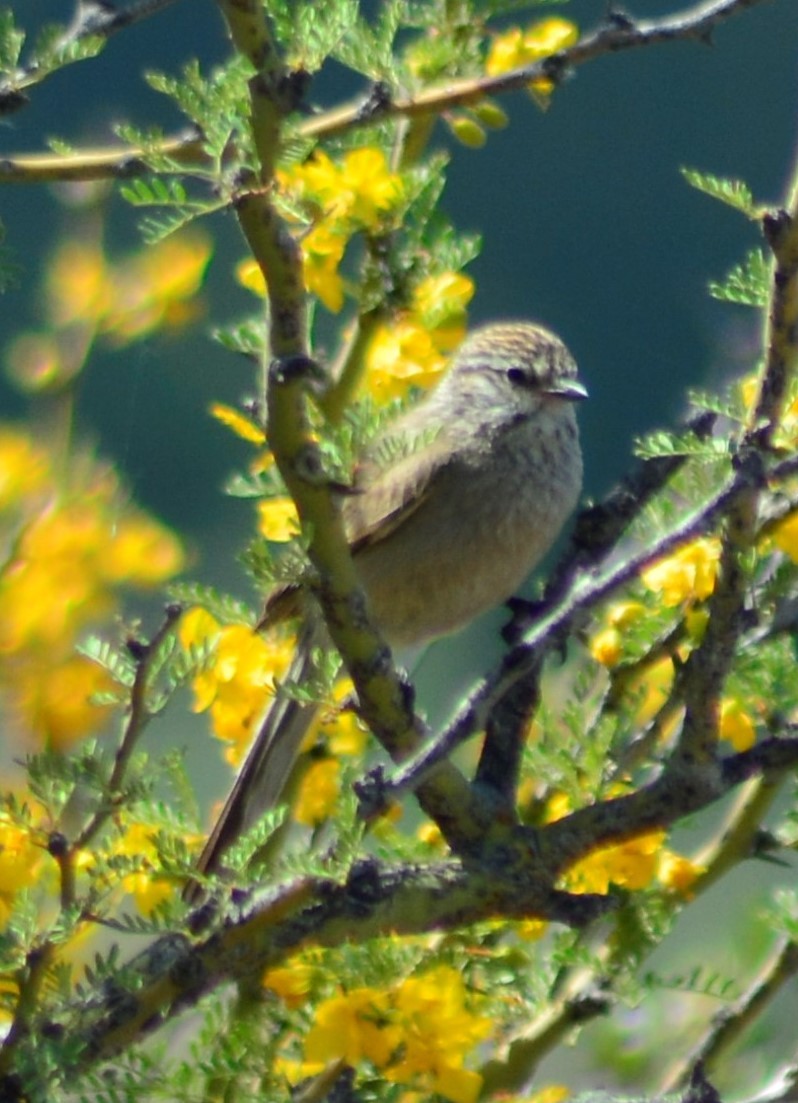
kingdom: Animalia
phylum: Chordata
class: Aves
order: Passeriformes
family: Furnariidae
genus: Leptasthenura
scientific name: Leptasthenura aegithaloides
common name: Plain-mantled tit-spinetail
